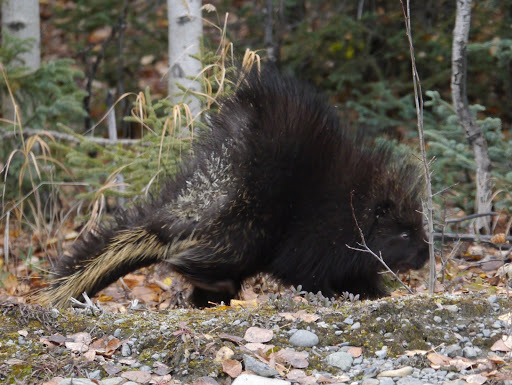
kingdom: Animalia
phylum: Chordata
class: Mammalia
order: Rodentia
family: Erethizontidae
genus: Erethizon
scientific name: Erethizon dorsatus
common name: North american porcupine
